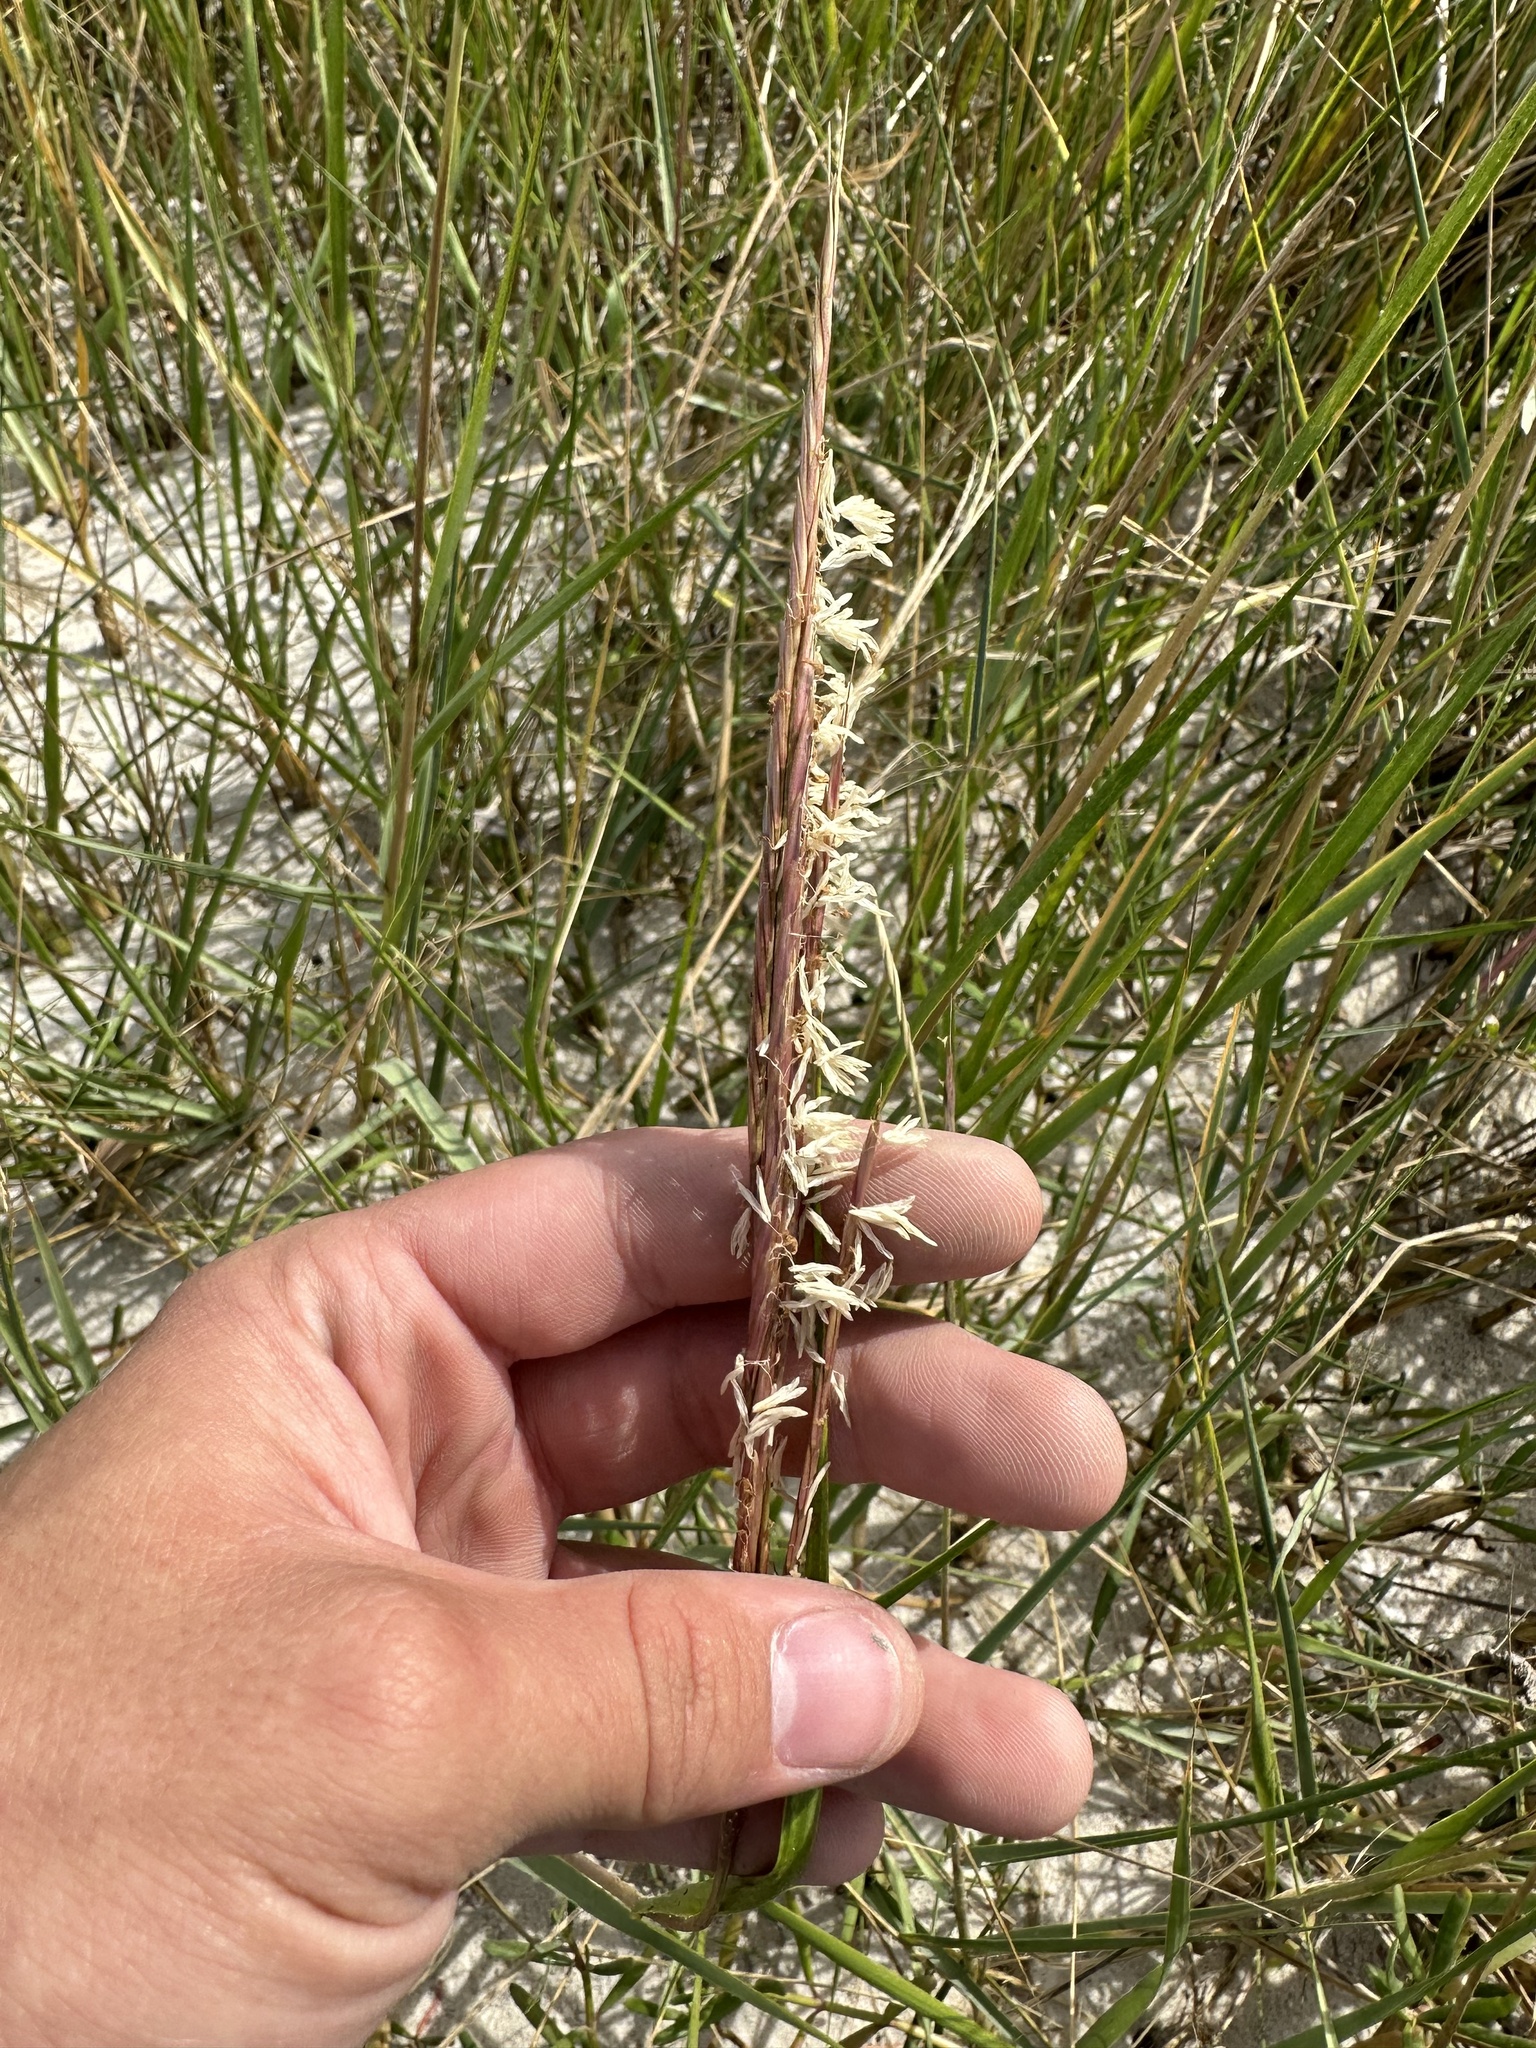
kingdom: Plantae
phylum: Tracheophyta
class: Liliopsida
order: Poales
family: Poaceae
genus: Sporobolus
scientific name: Sporobolus alterniflorus
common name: Atlantic cordgrass
